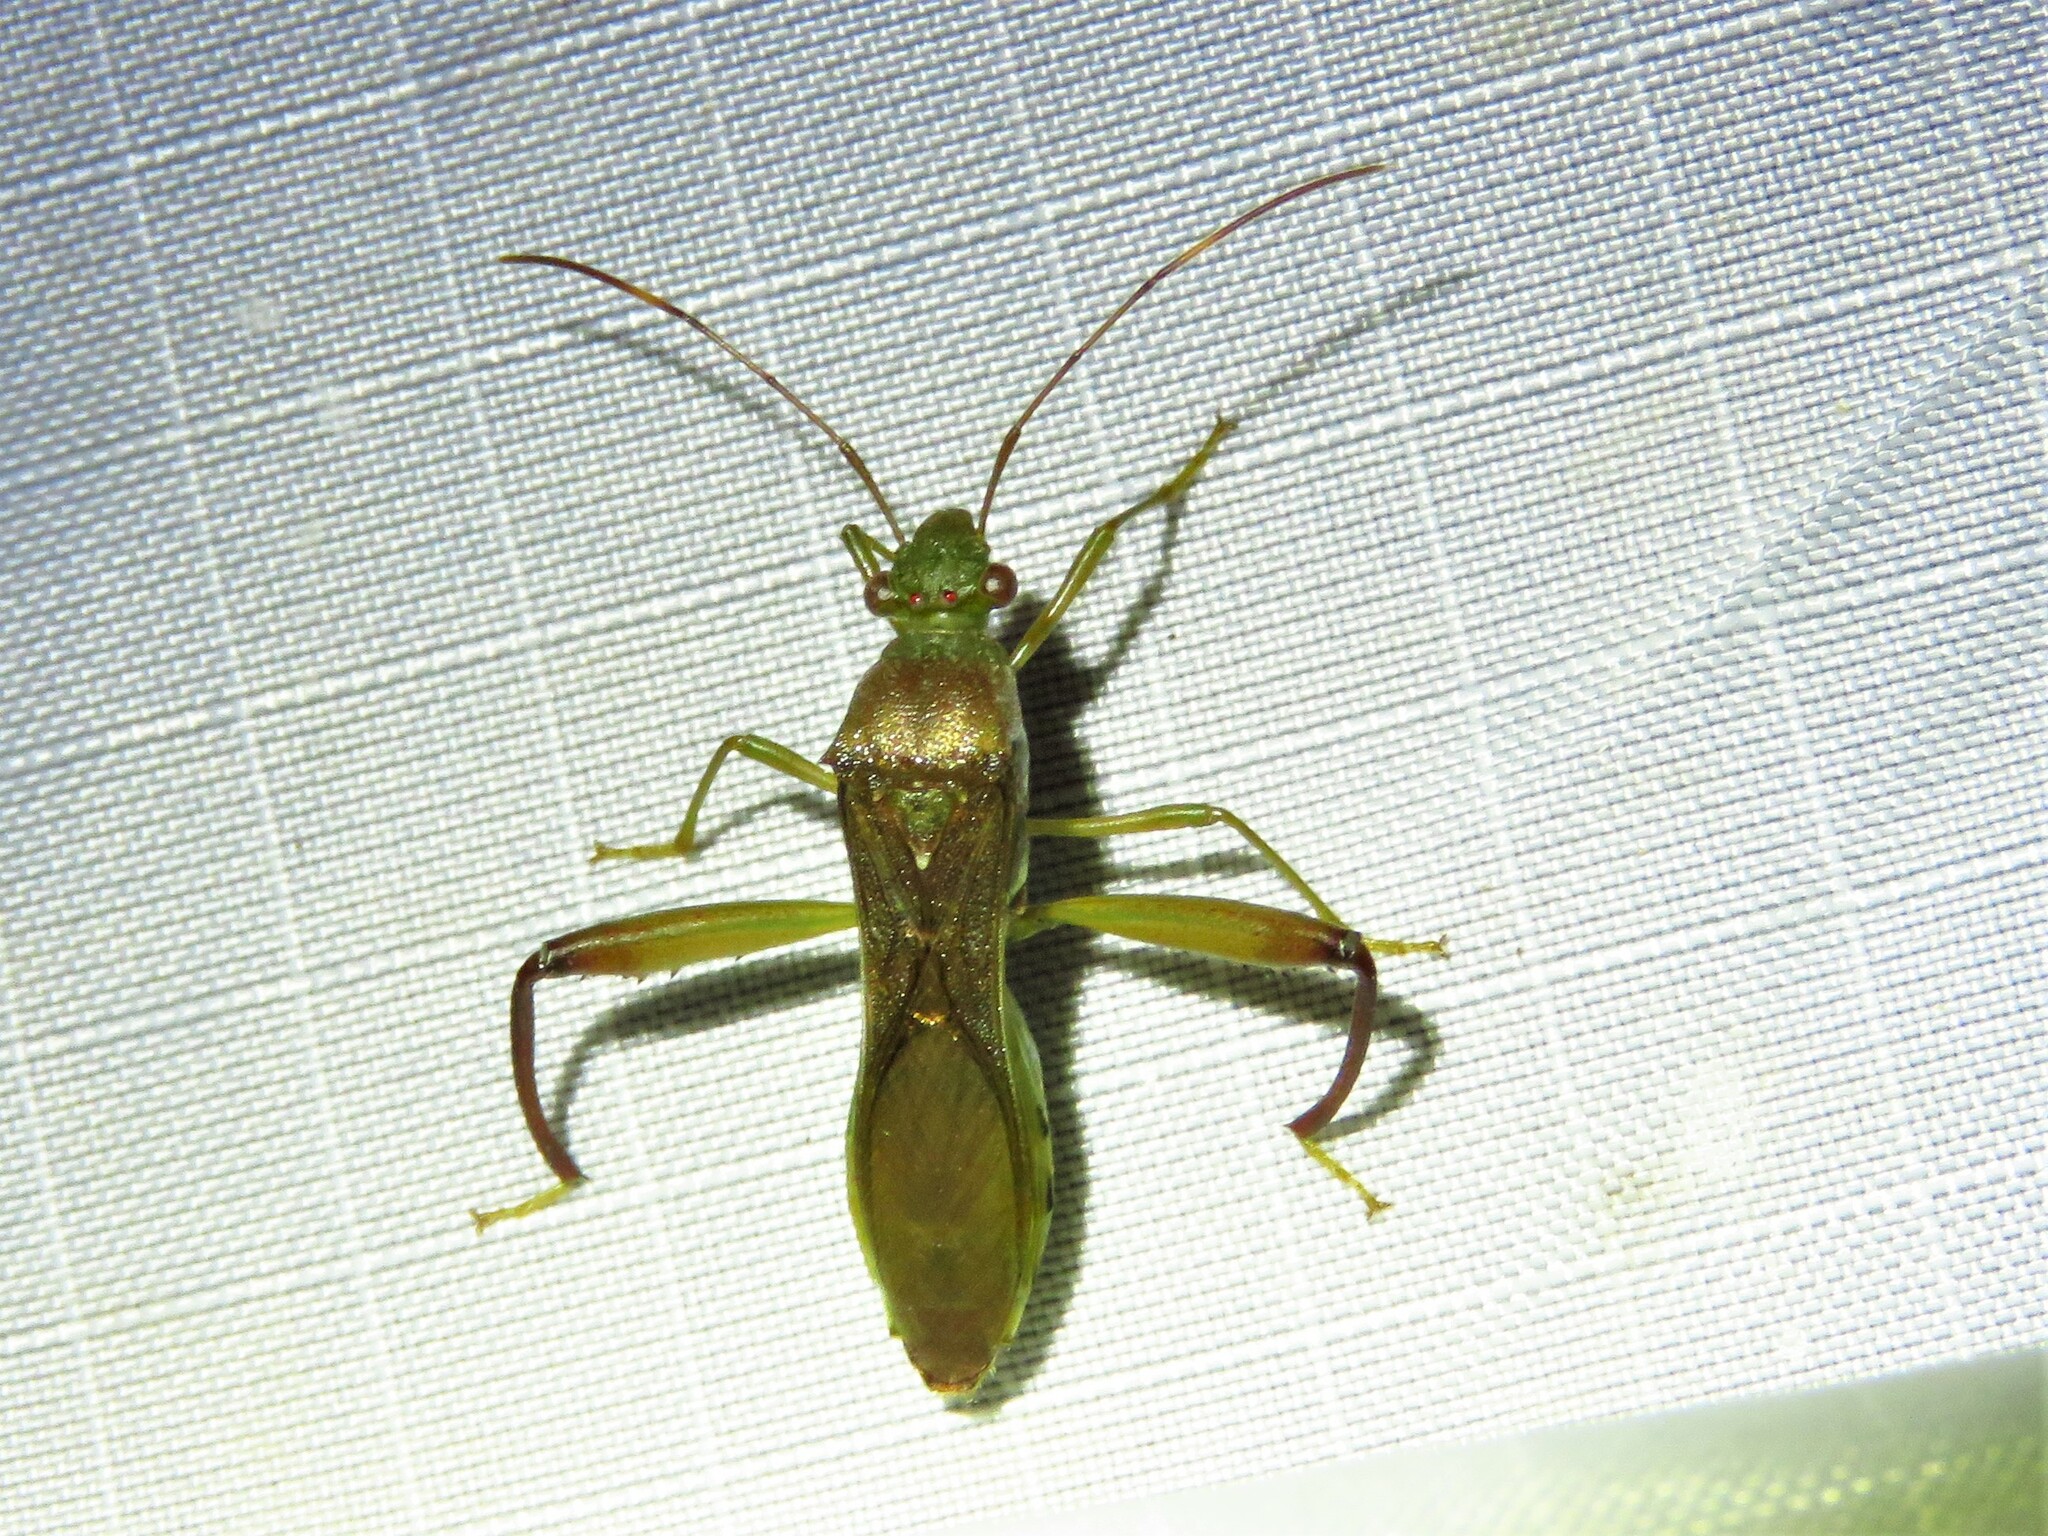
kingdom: Animalia
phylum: Arthropoda
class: Insecta
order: Hemiptera
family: Alydidae
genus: Hyalymenus
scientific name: Hyalymenus tarsatus
